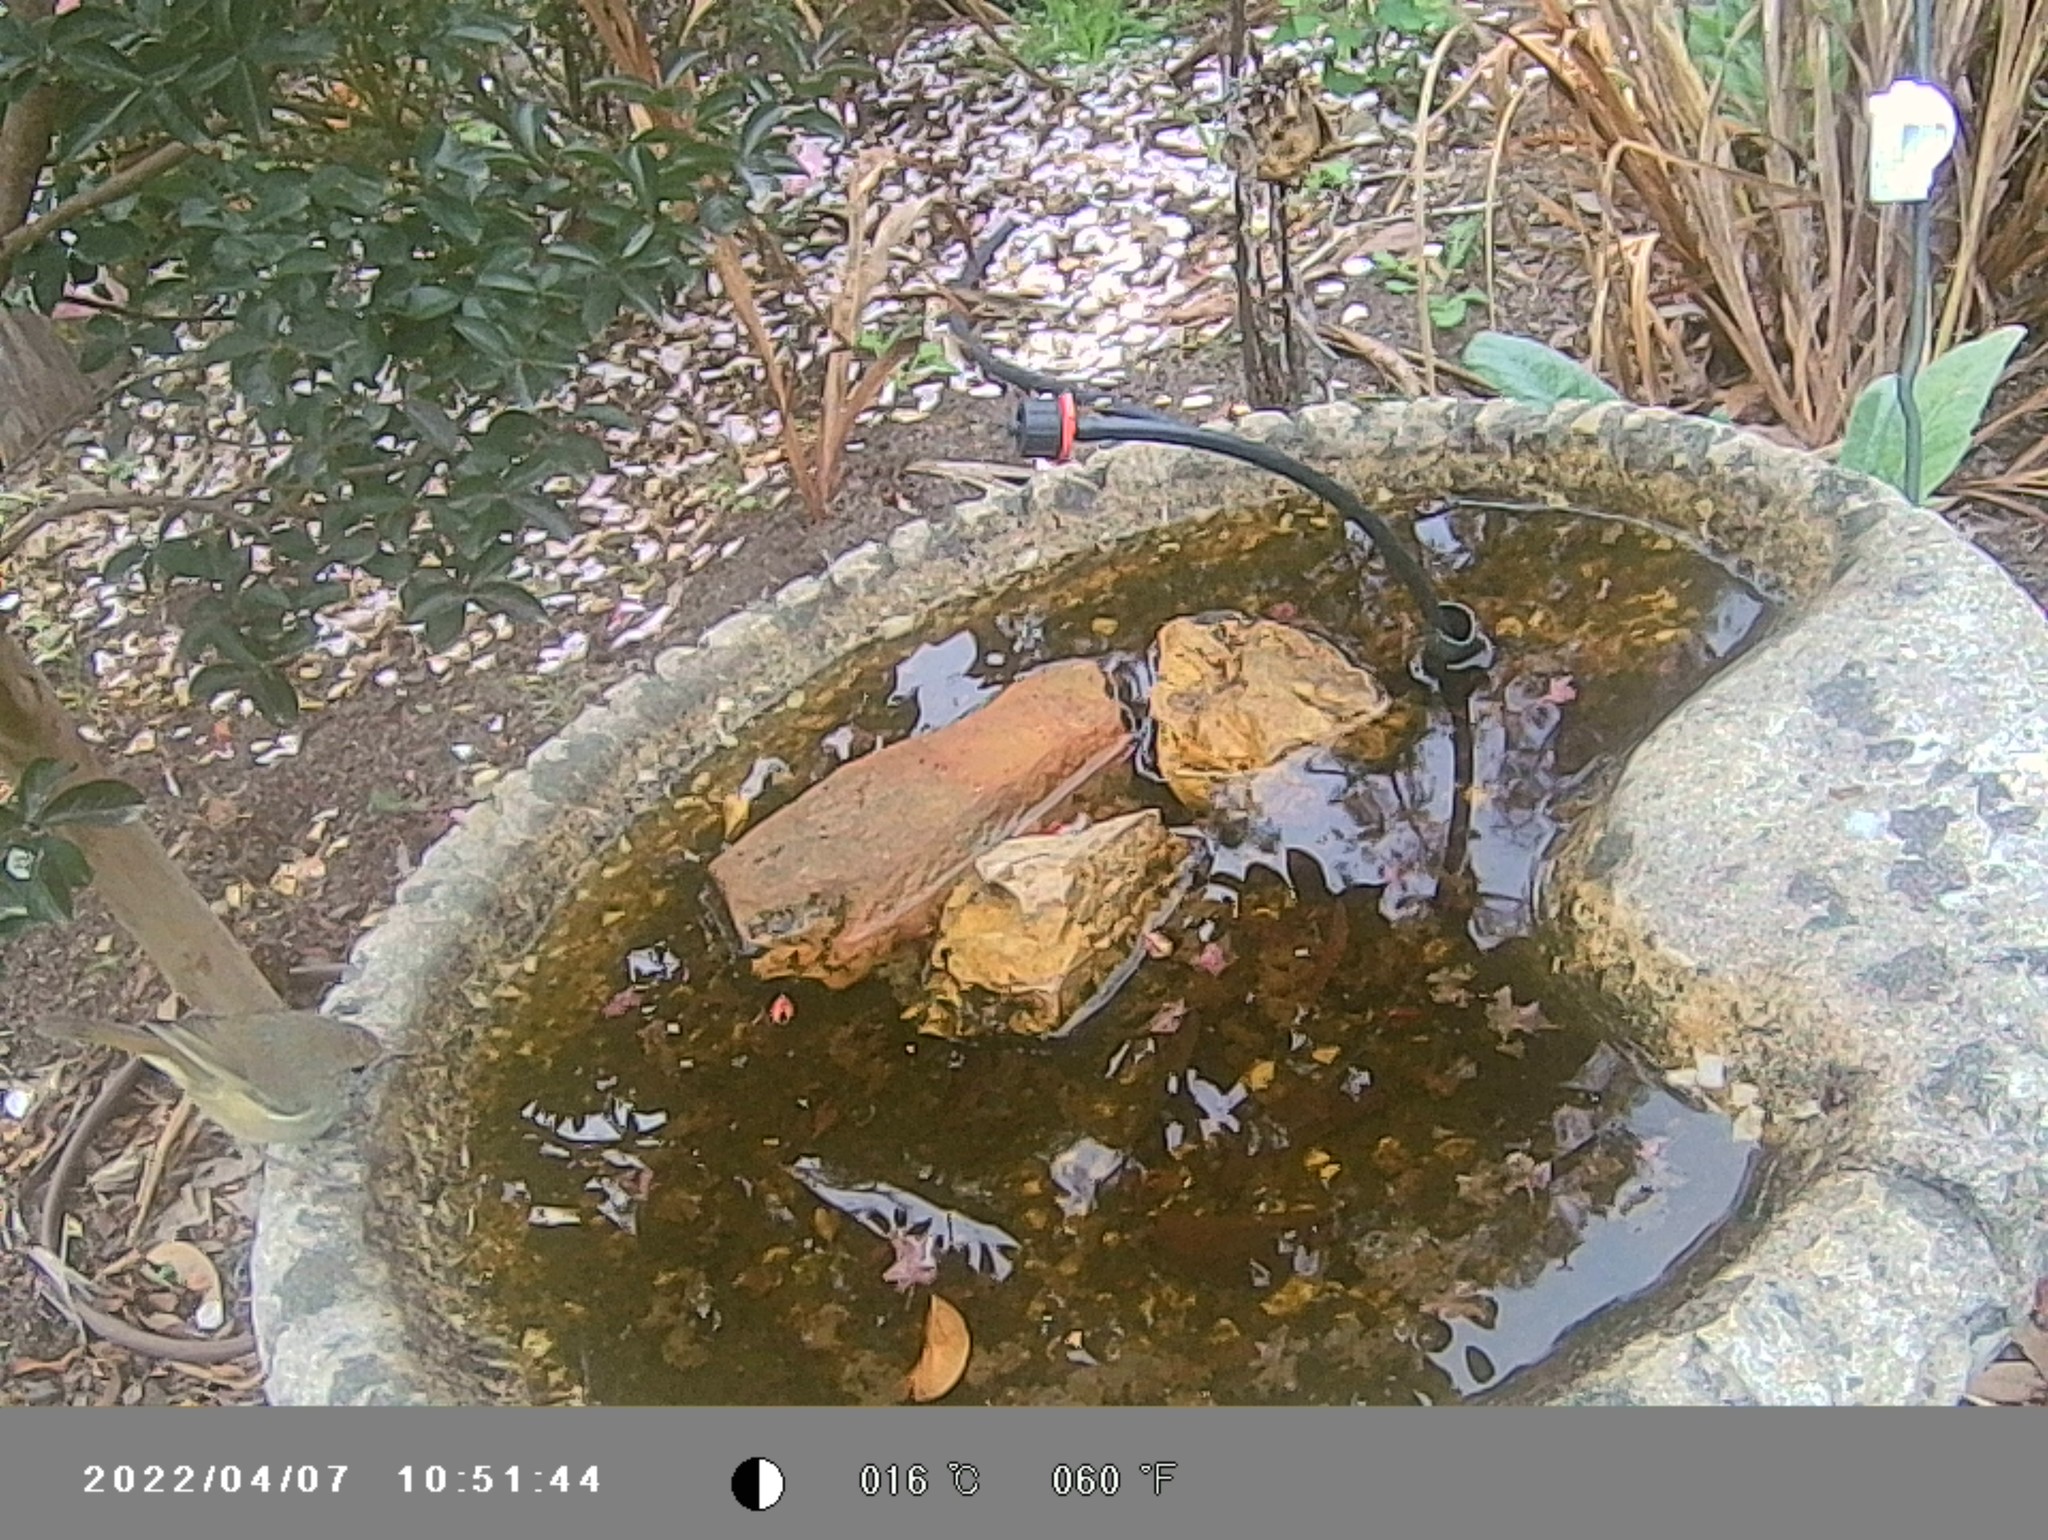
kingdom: Animalia
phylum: Chordata
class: Aves
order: Passeriformes
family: Acanthizidae
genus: Acanthiza
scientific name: Acanthiza pusilla
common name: Brown thornbill
